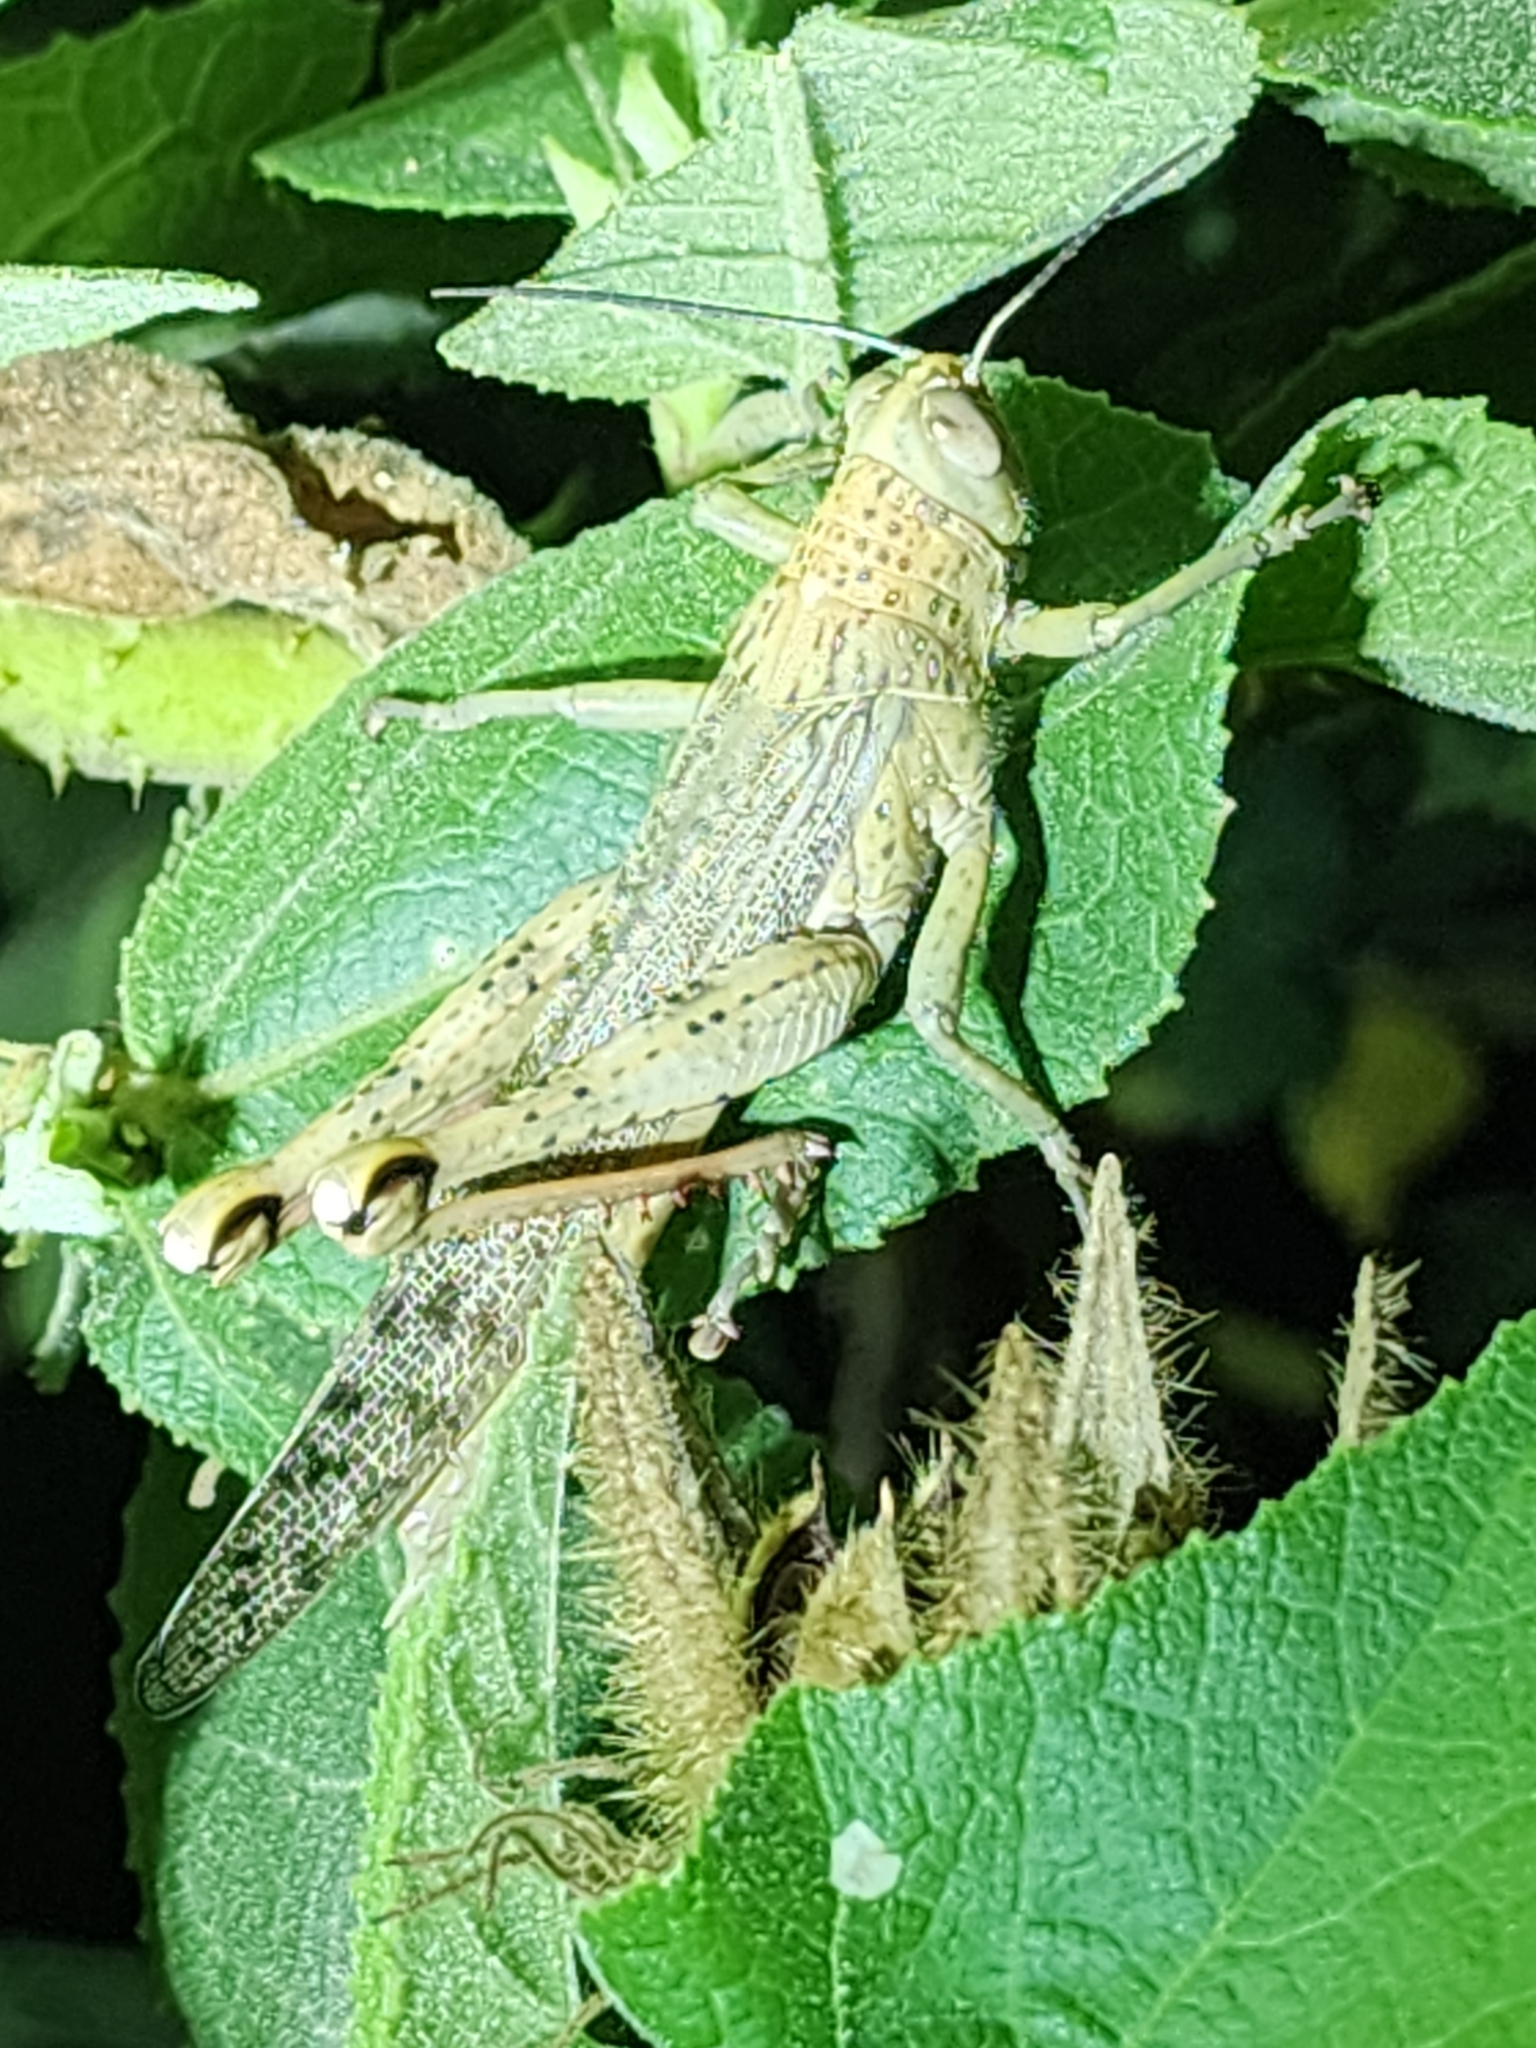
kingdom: Animalia
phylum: Arthropoda
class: Insecta
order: Orthoptera
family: Acrididae
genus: Valanga
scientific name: Valanga irregularis
